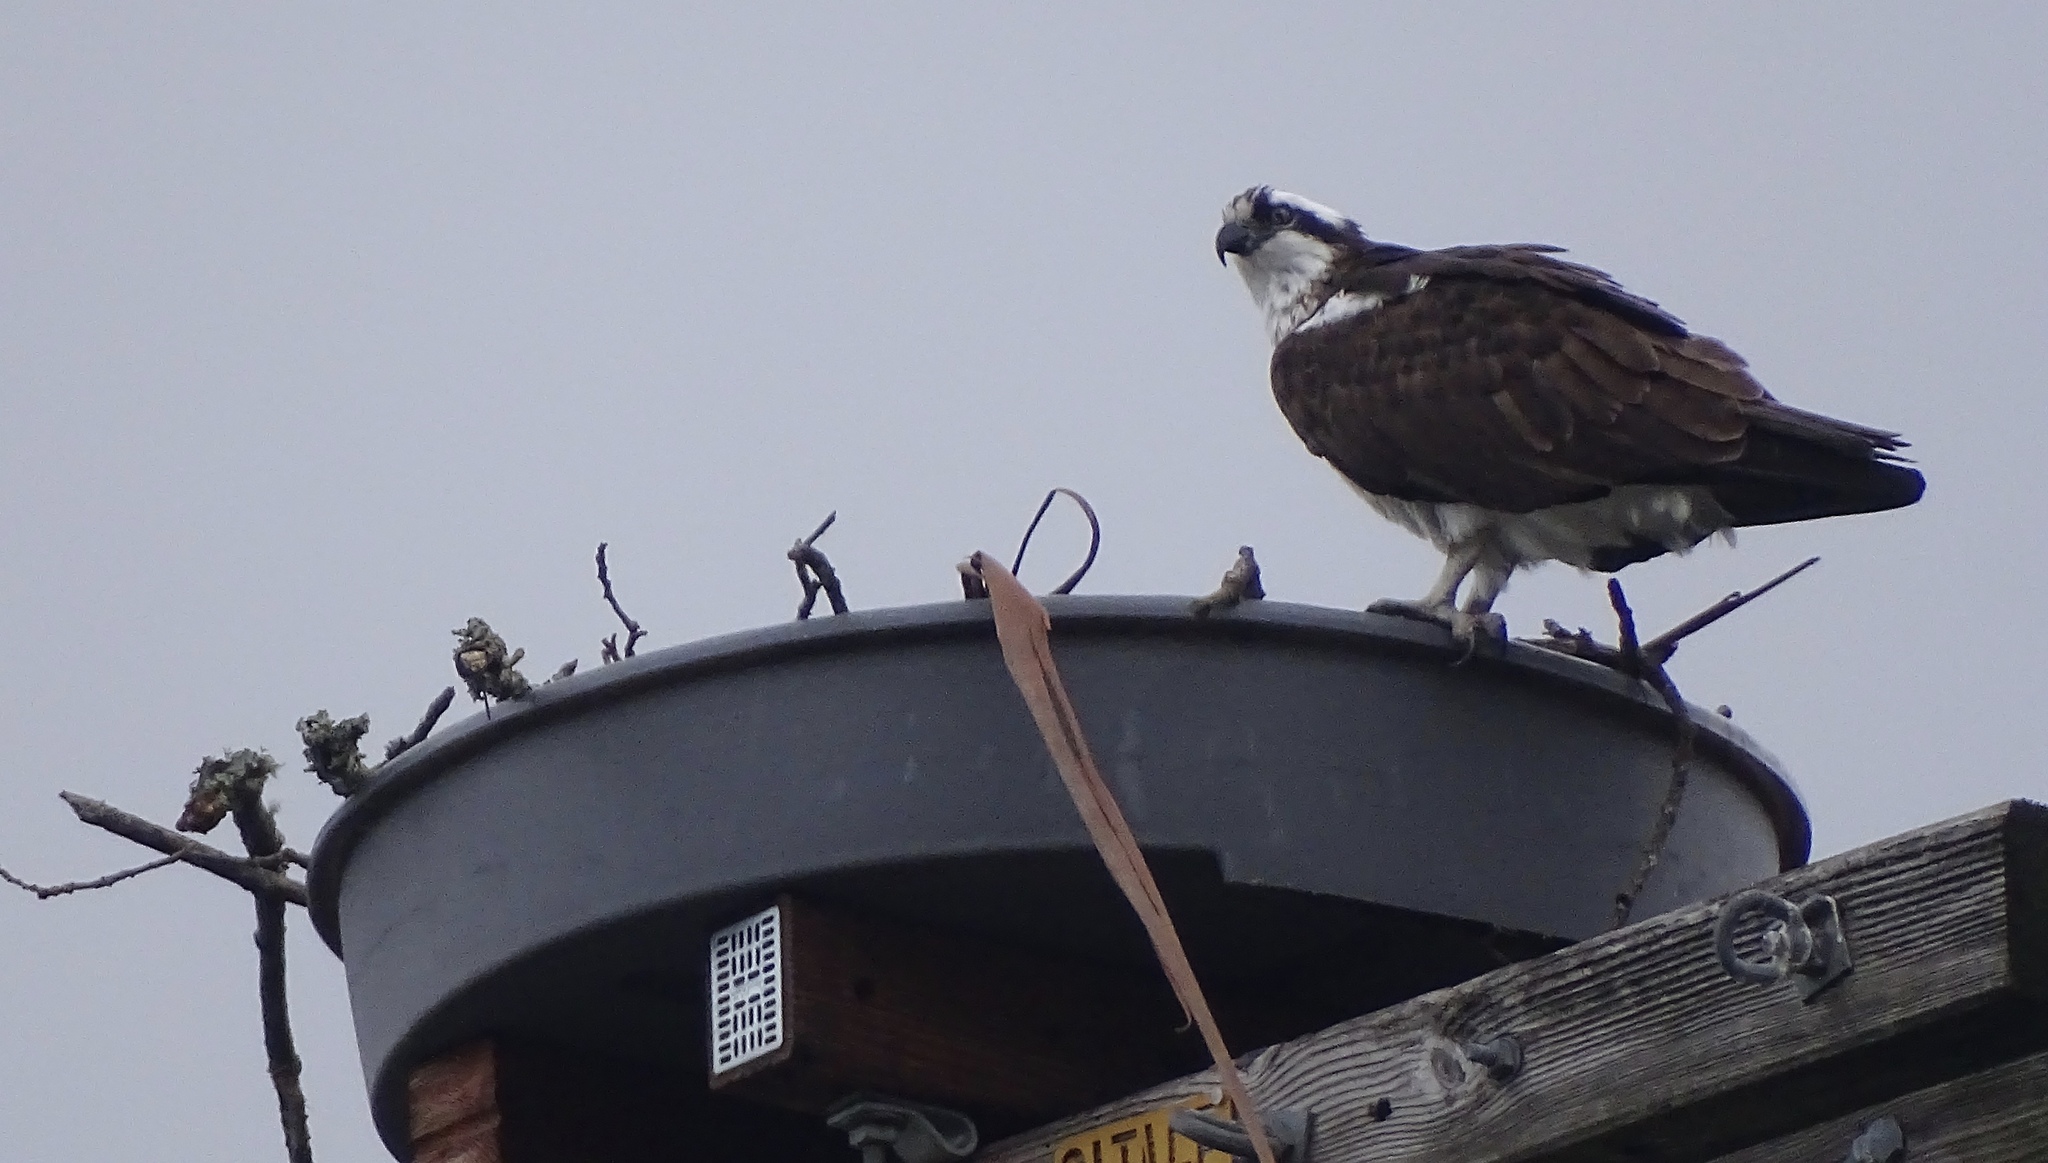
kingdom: Animalia
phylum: Chordata
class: Aves
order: Accipitriformes
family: Pandionidae
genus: Pandion
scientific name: Pandion haliaetus
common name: Osprey
